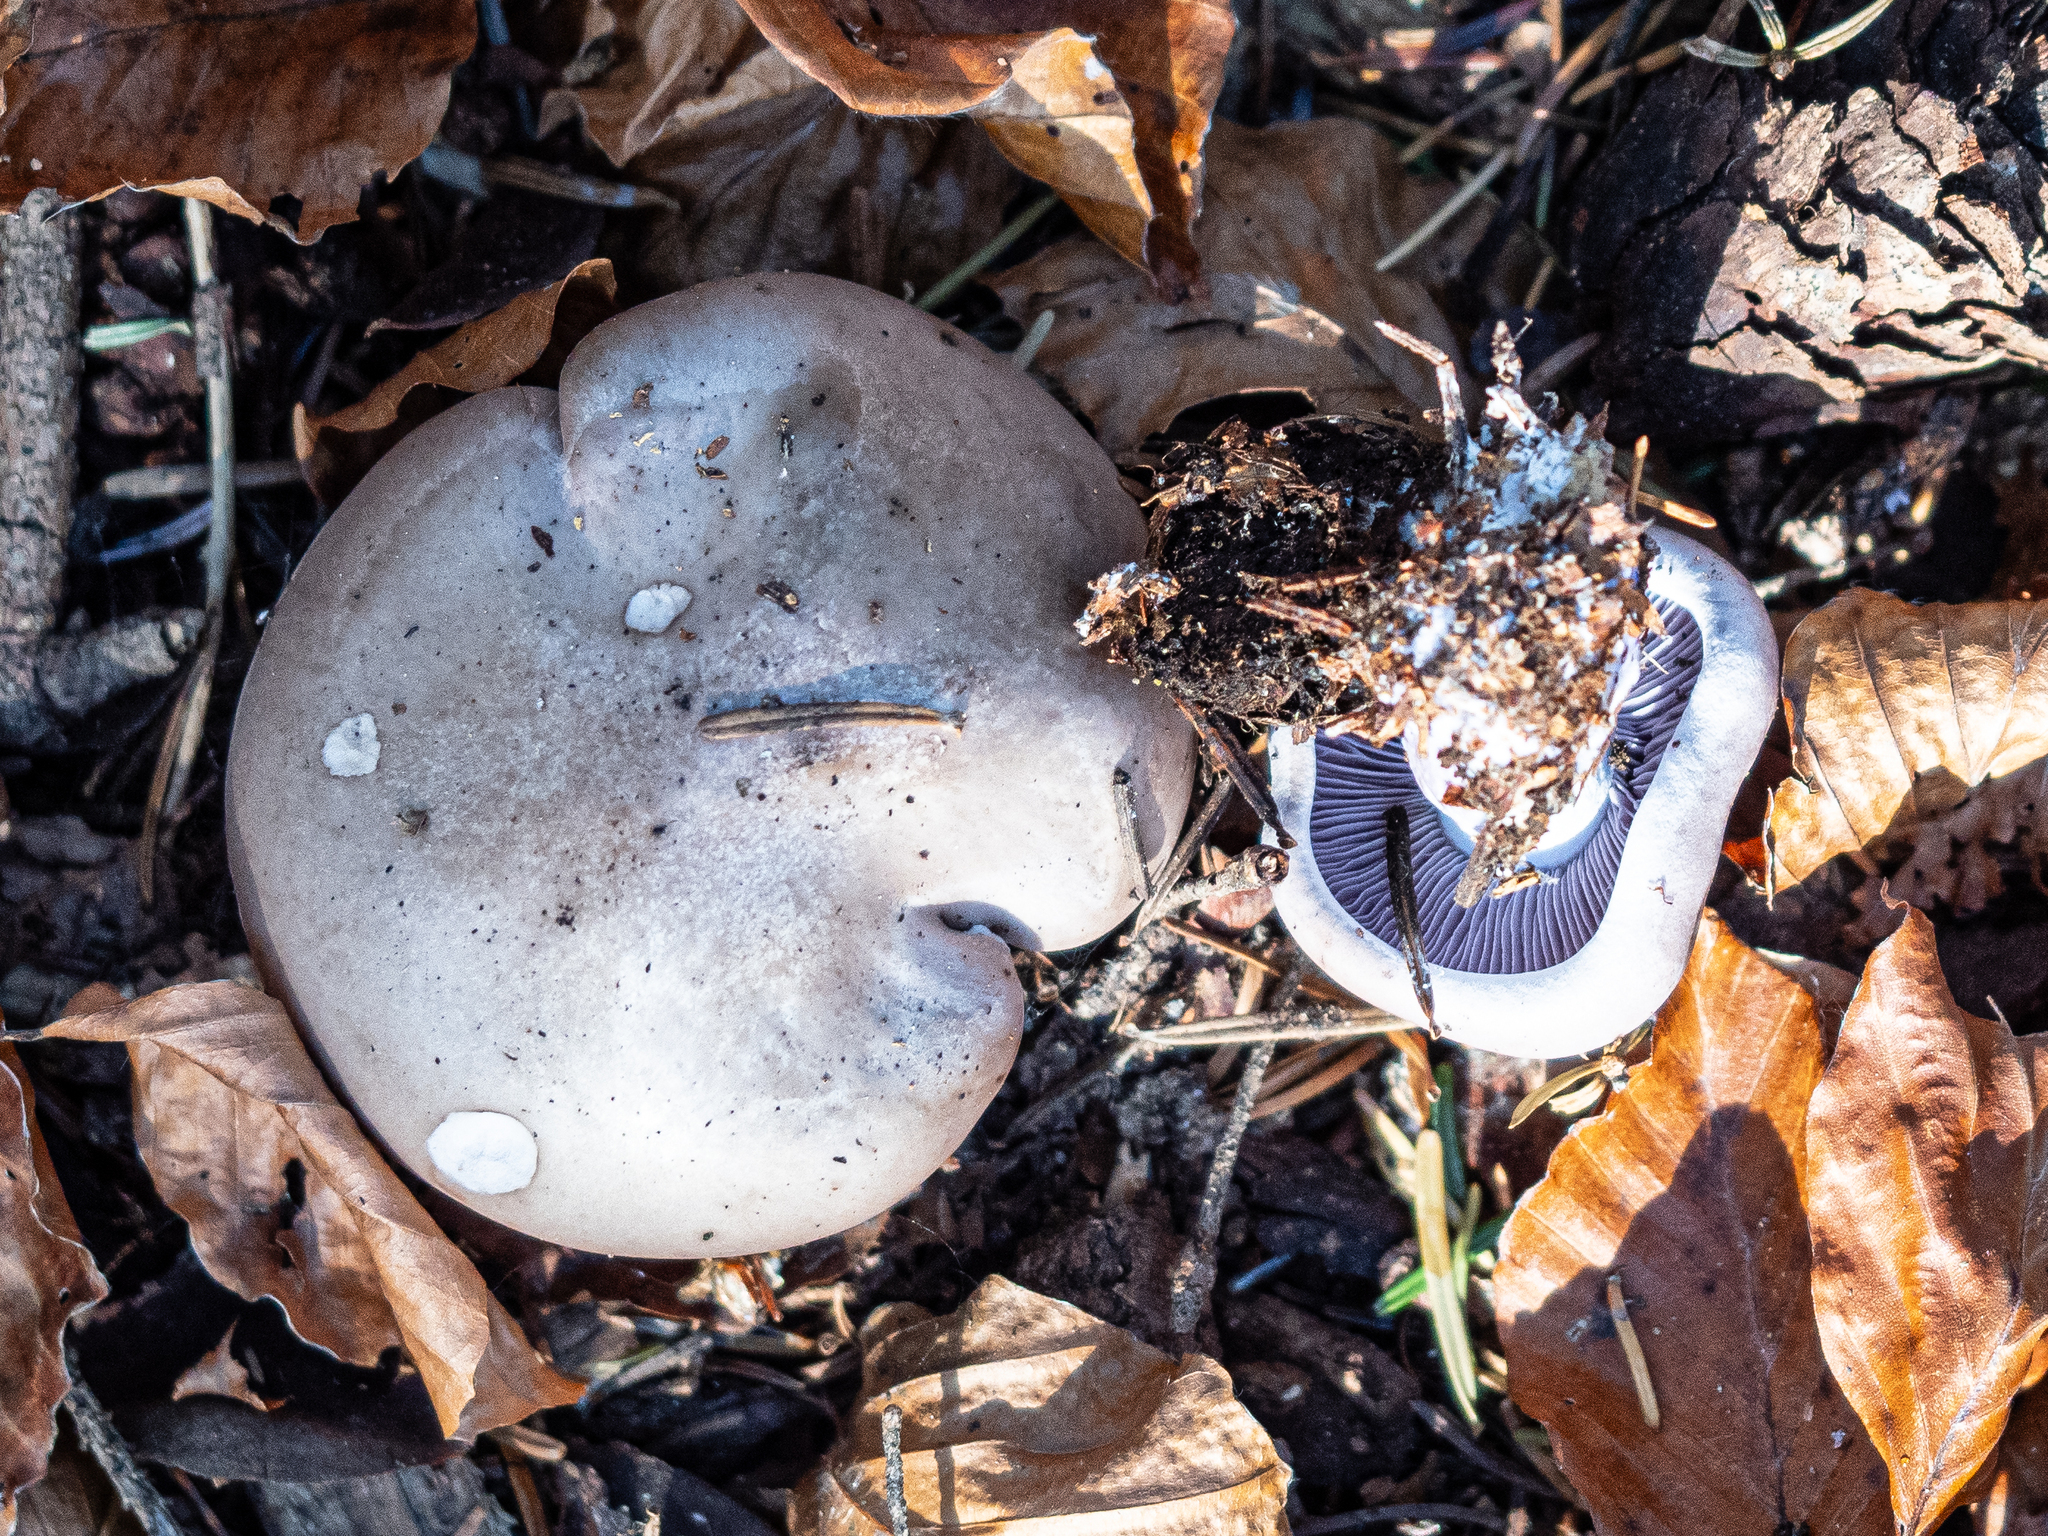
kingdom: Fungi
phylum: Basidiomycota
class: Agaricomycetes
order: Agaricales
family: Tricholomataceae
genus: Collybia
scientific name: Collybia
